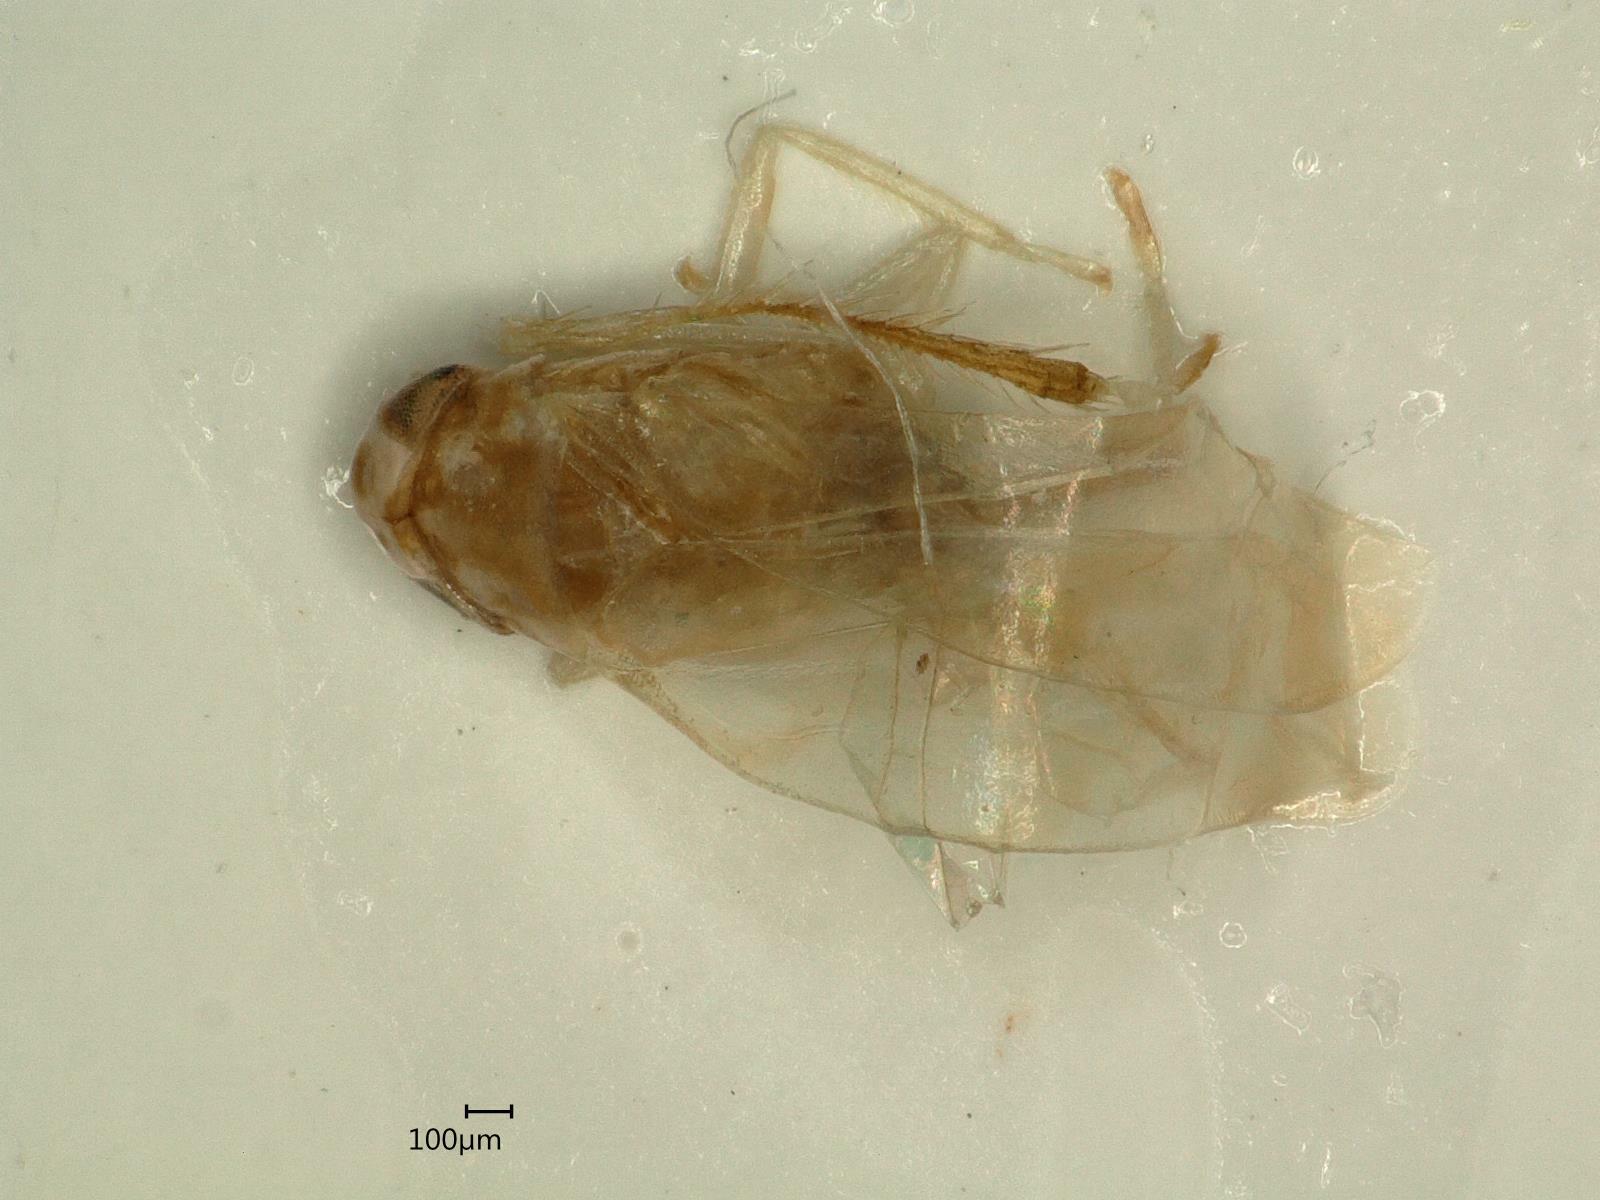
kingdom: Animalia
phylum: Arthropoda
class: Insecta
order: Hemiptera
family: Cicadellidae
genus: Eupteryx
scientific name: Eupteryx calcarata
